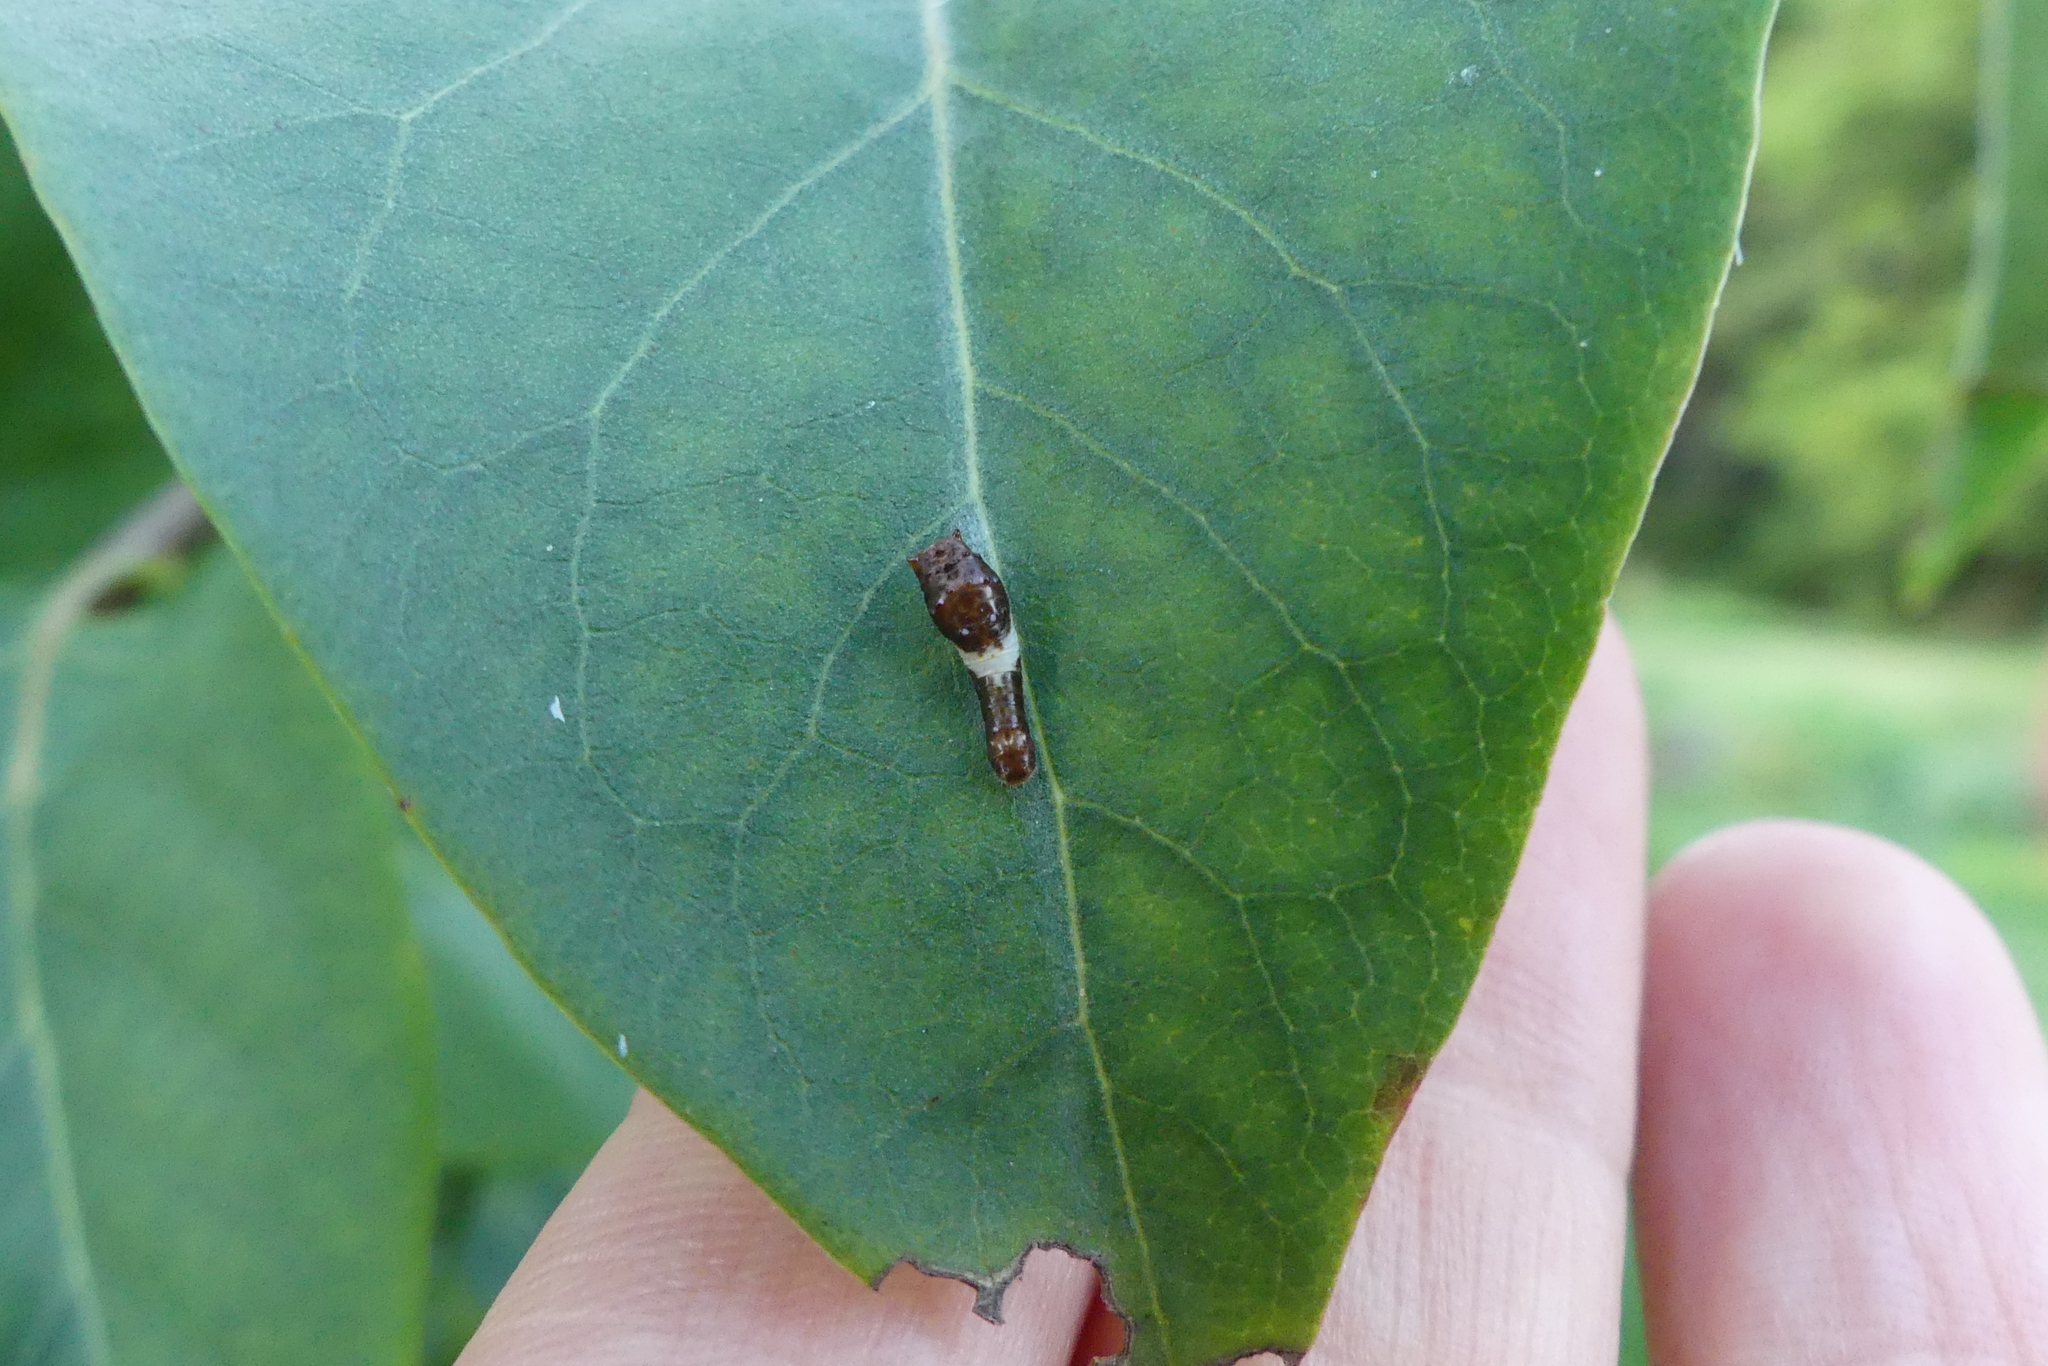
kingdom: Animalia
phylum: Arthropoda
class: Insecta
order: Lepidoptera
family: Papilionidae
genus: Papilio
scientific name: Papilio glaucus
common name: Tiger swallowtail
